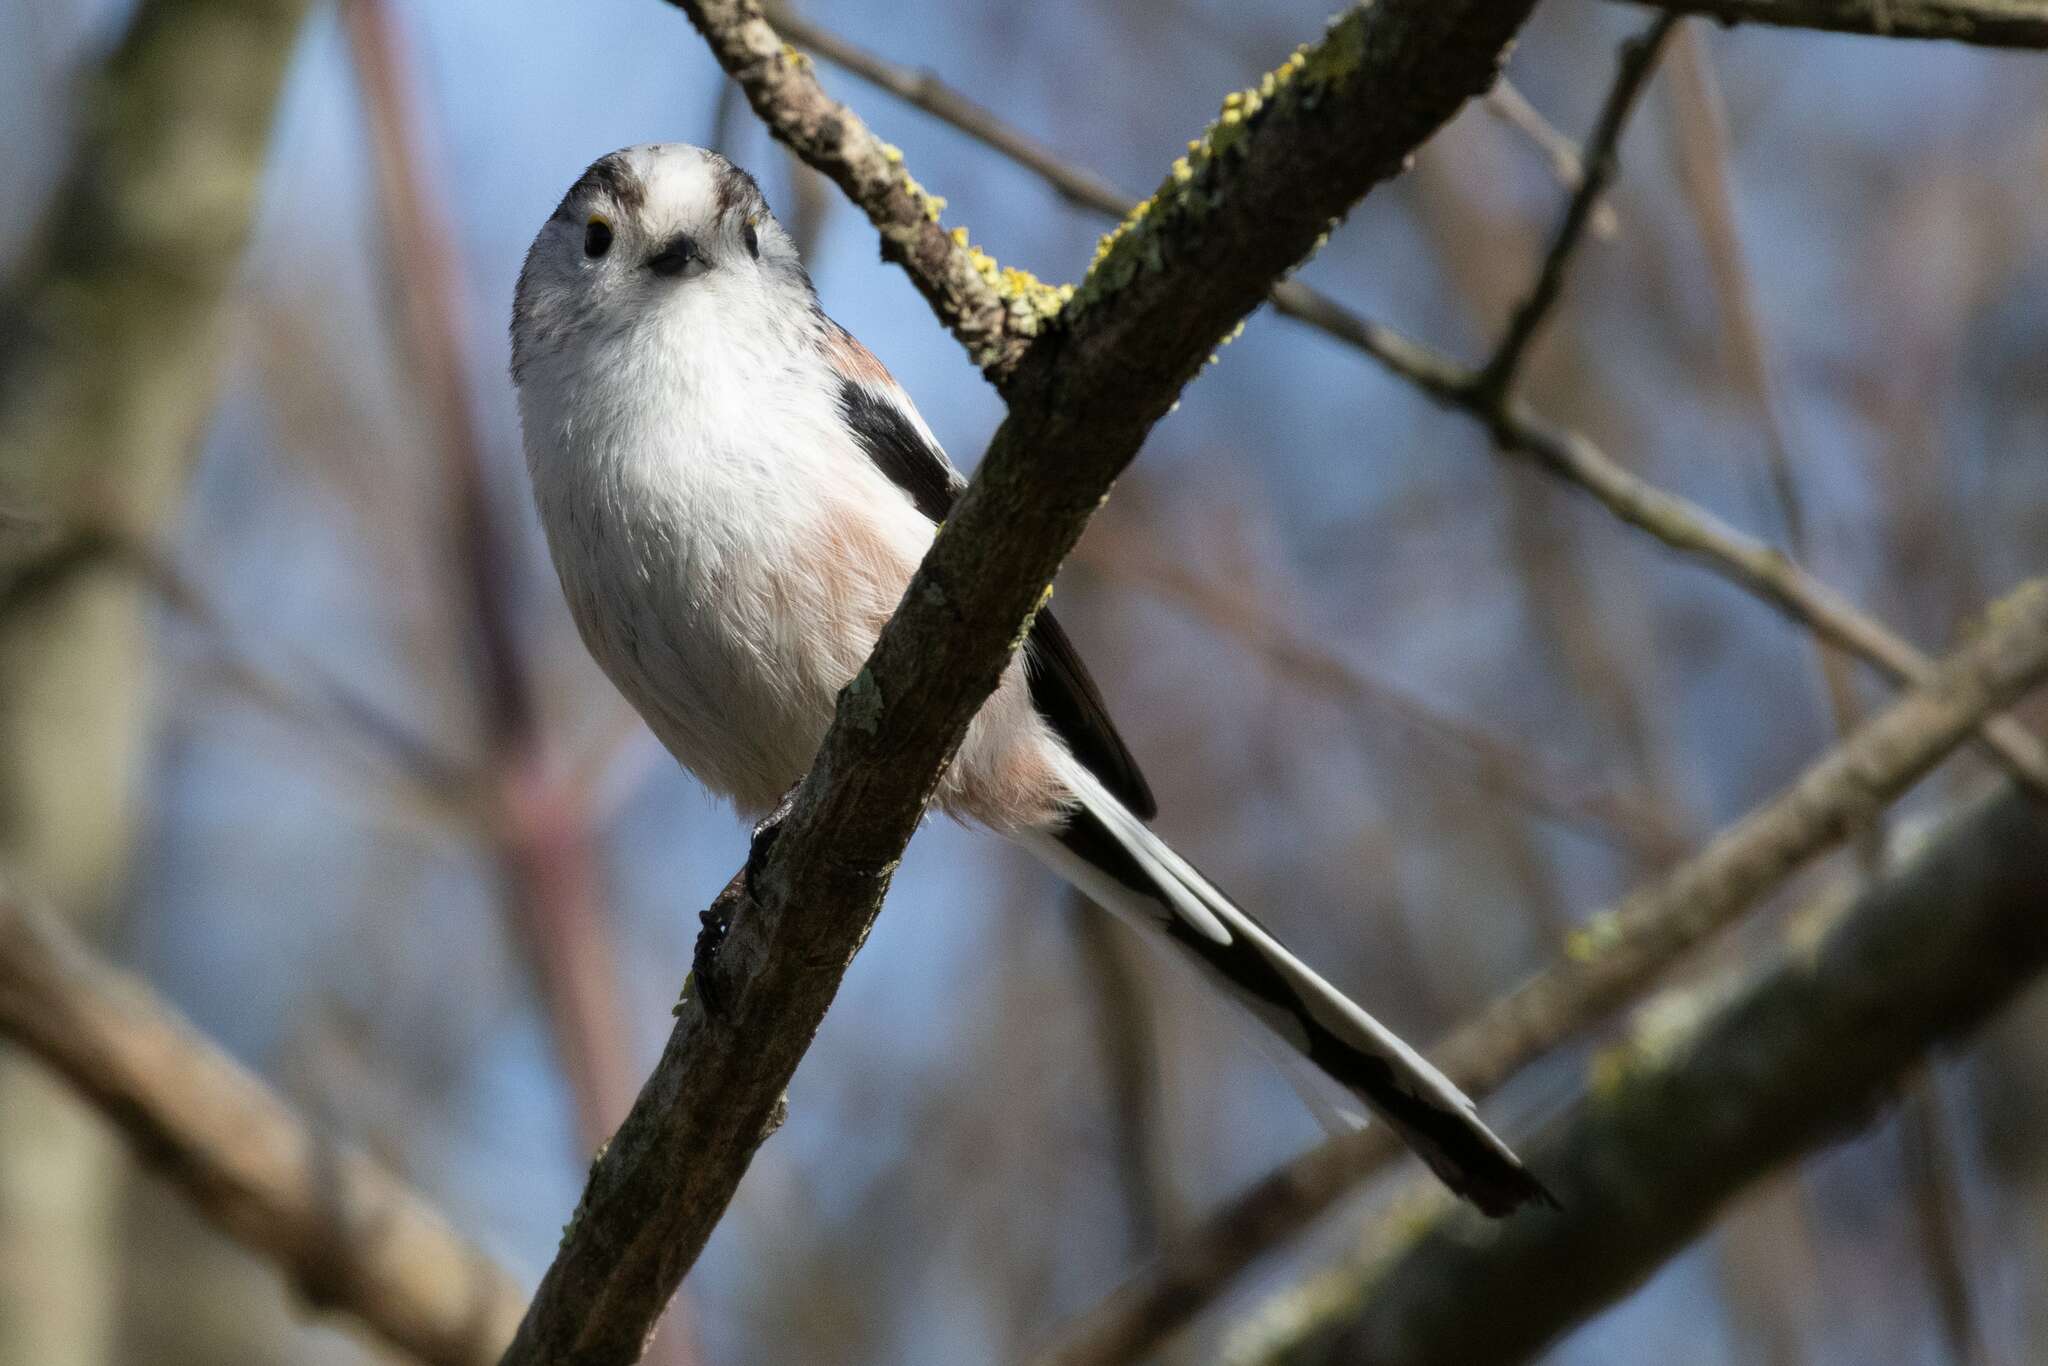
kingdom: Animalia
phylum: Chordata
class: Aves
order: Passeriformes
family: Aegithalidae
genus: Aegithalos
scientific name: Aegithalos caudatus
